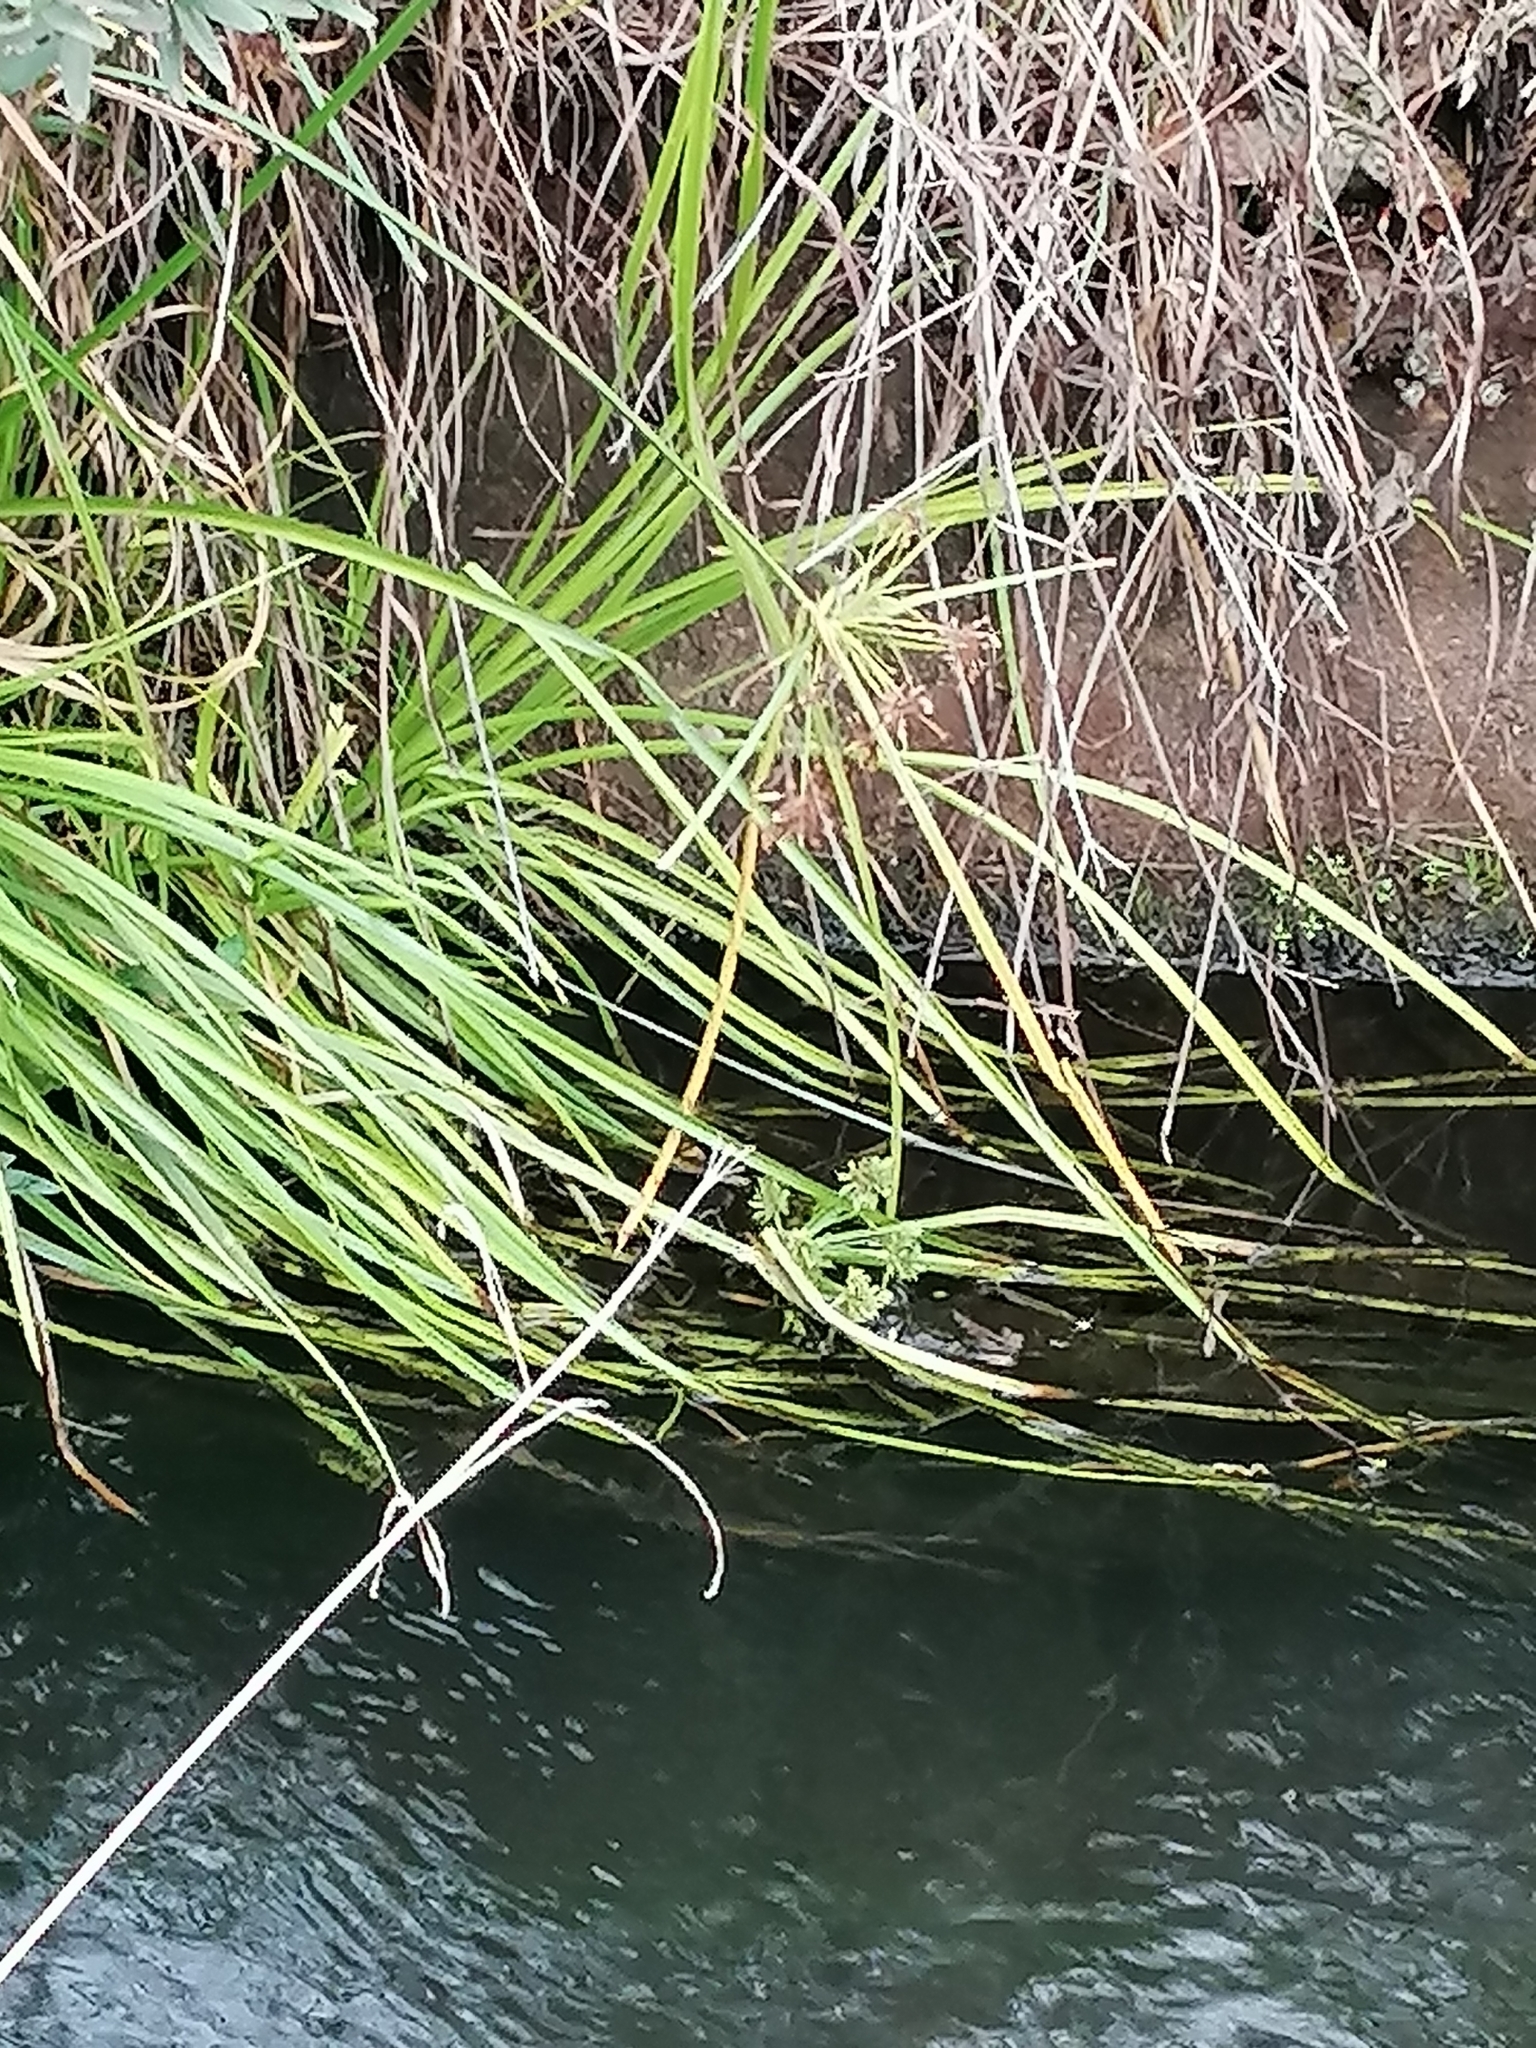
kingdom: Plantae
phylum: Tracheophyta
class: Liliopsida
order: Poales
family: Cyperaceae
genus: Cyperus
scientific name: Cyperus eragrostis
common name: Tall flatsedge
